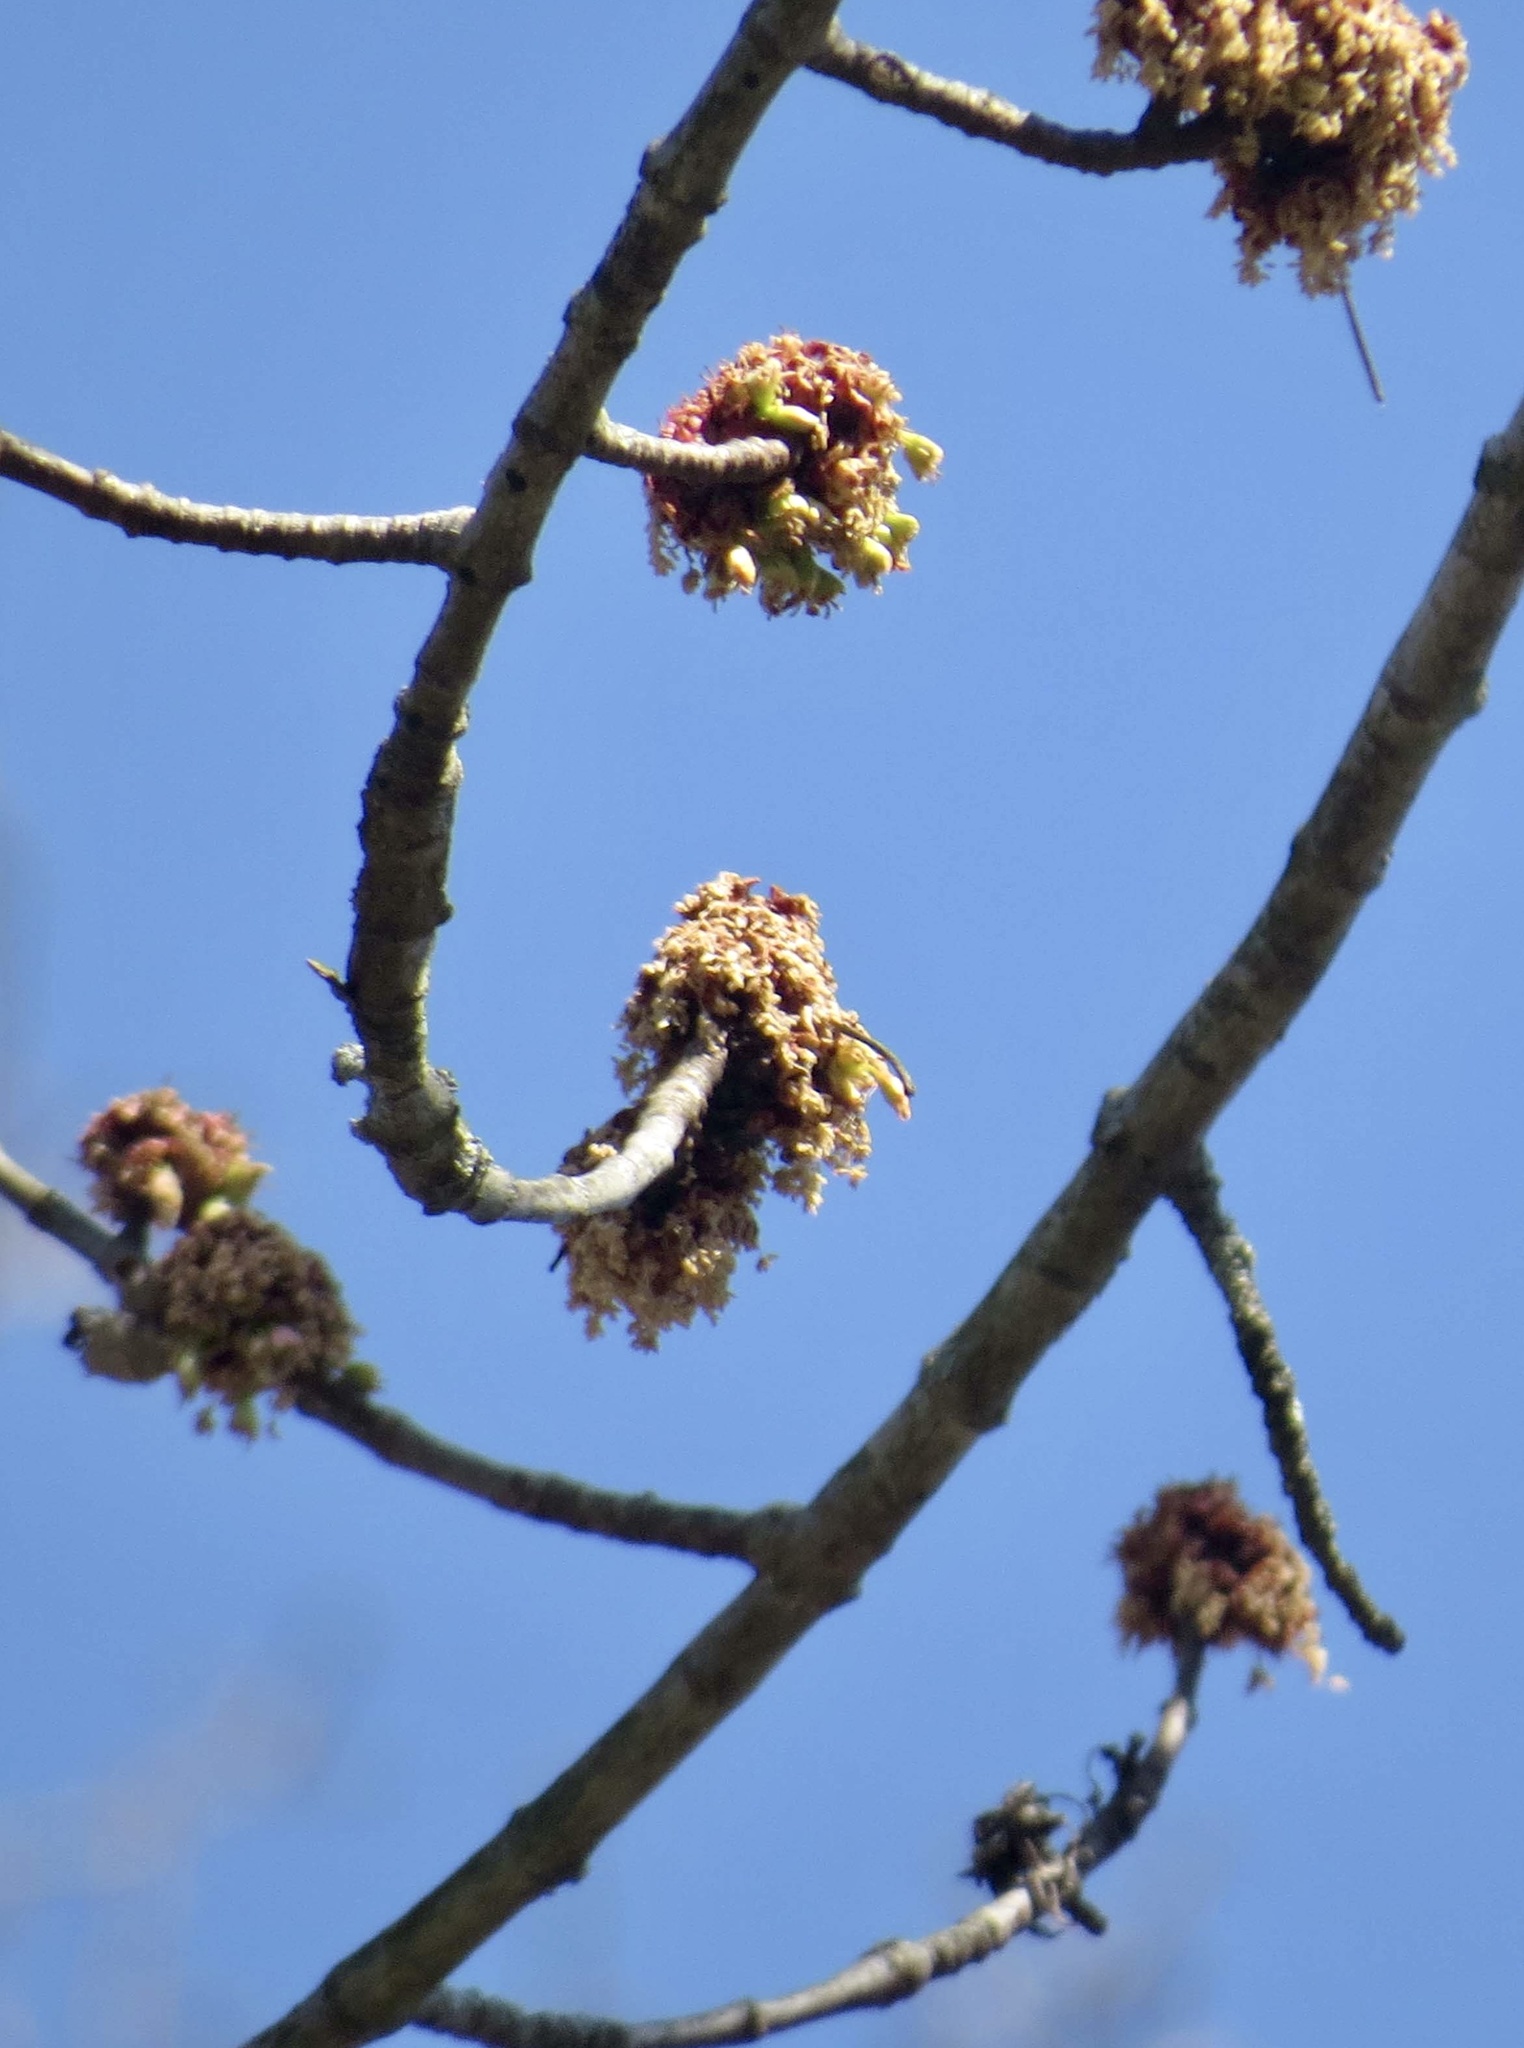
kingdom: Plantae
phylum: Tracheophyta
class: Magnoliopsida
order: Sapindales
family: Sapindaceae
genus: Acer
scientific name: Acer saccharinum
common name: Silver maple
